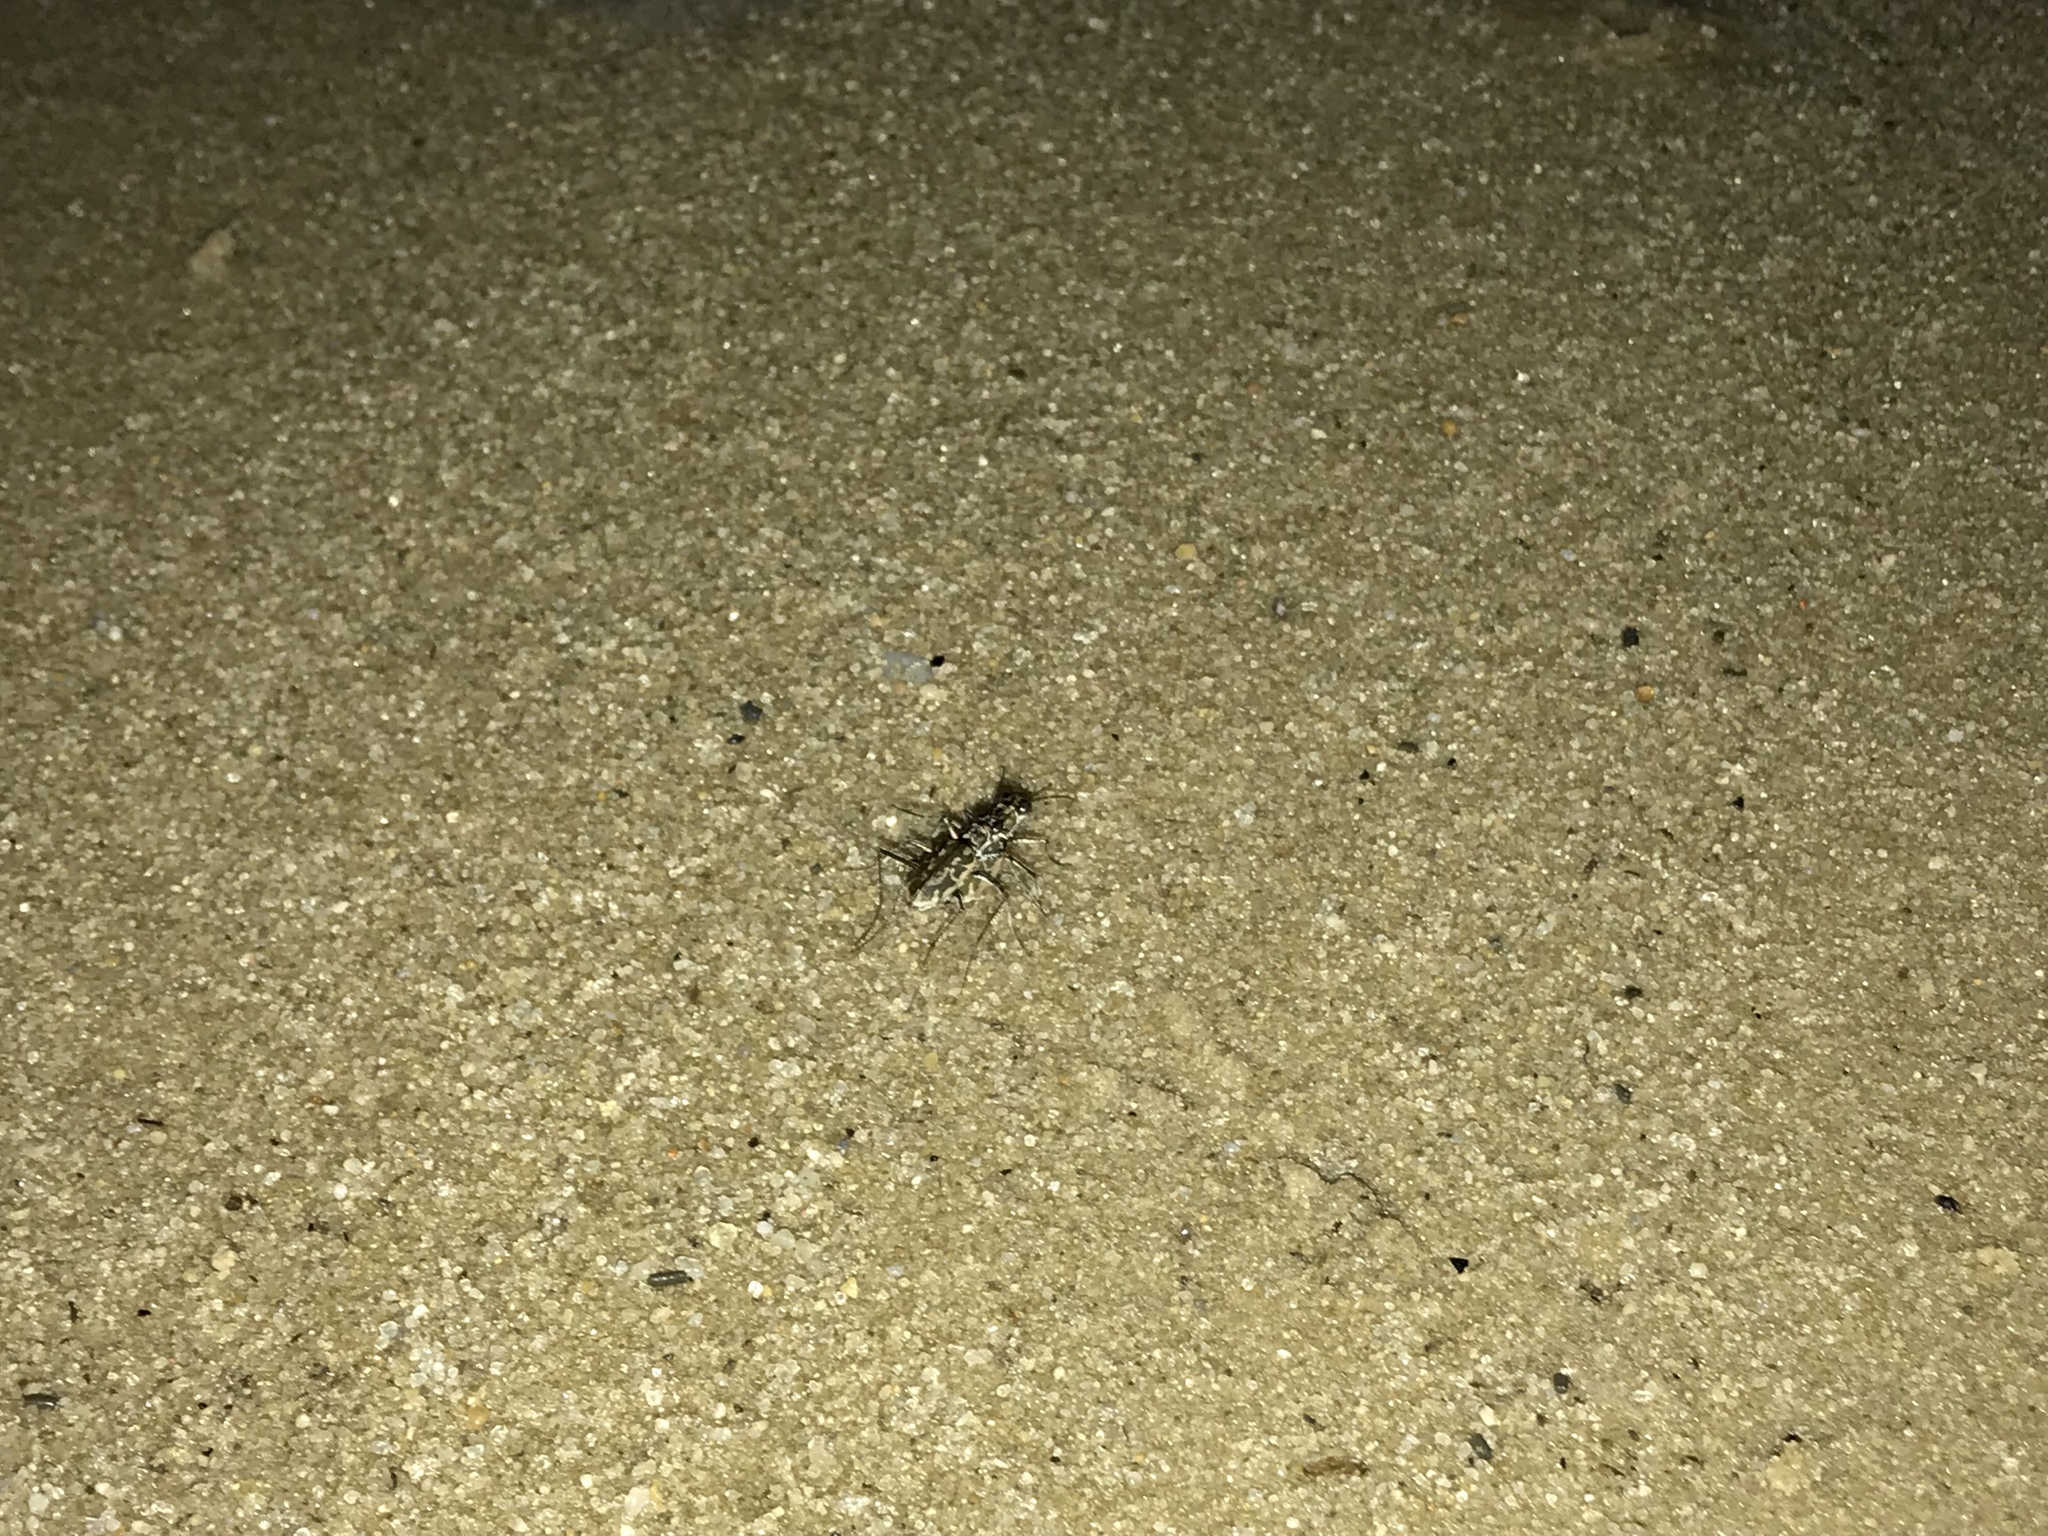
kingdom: Animalia
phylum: Arthropoda
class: Insecta
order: Coleoptera
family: Carabidae
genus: Ellipsoptera
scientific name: Ellipsoptera hamata
